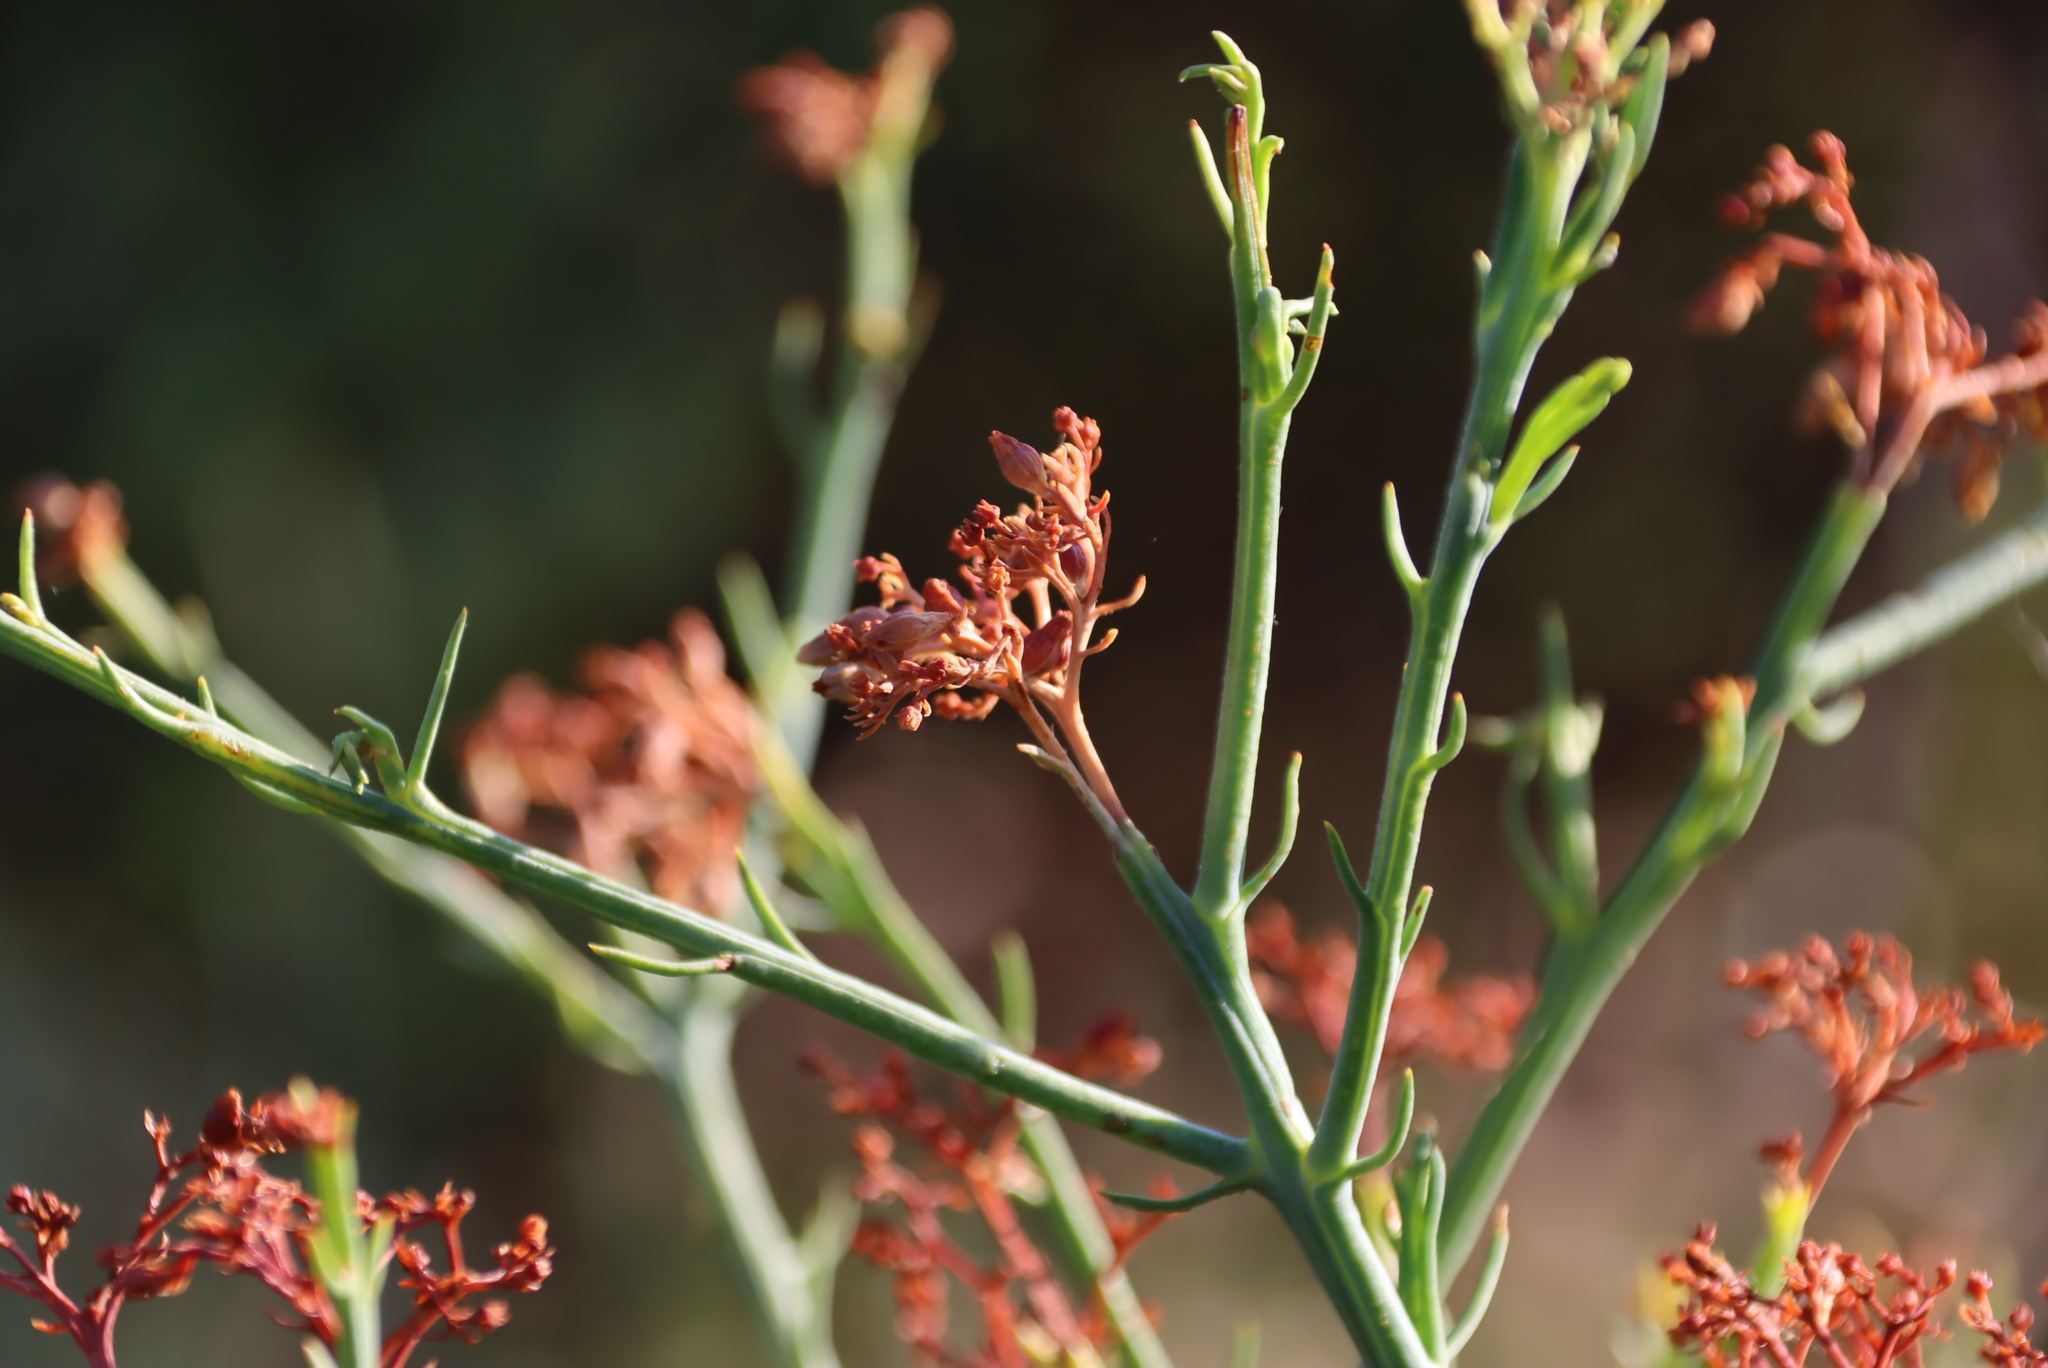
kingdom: Plantae
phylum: Tracheophyta
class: Magnoliopsida
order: Santalales
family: Thesiaceae
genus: Thesium
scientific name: Thesium strictum
